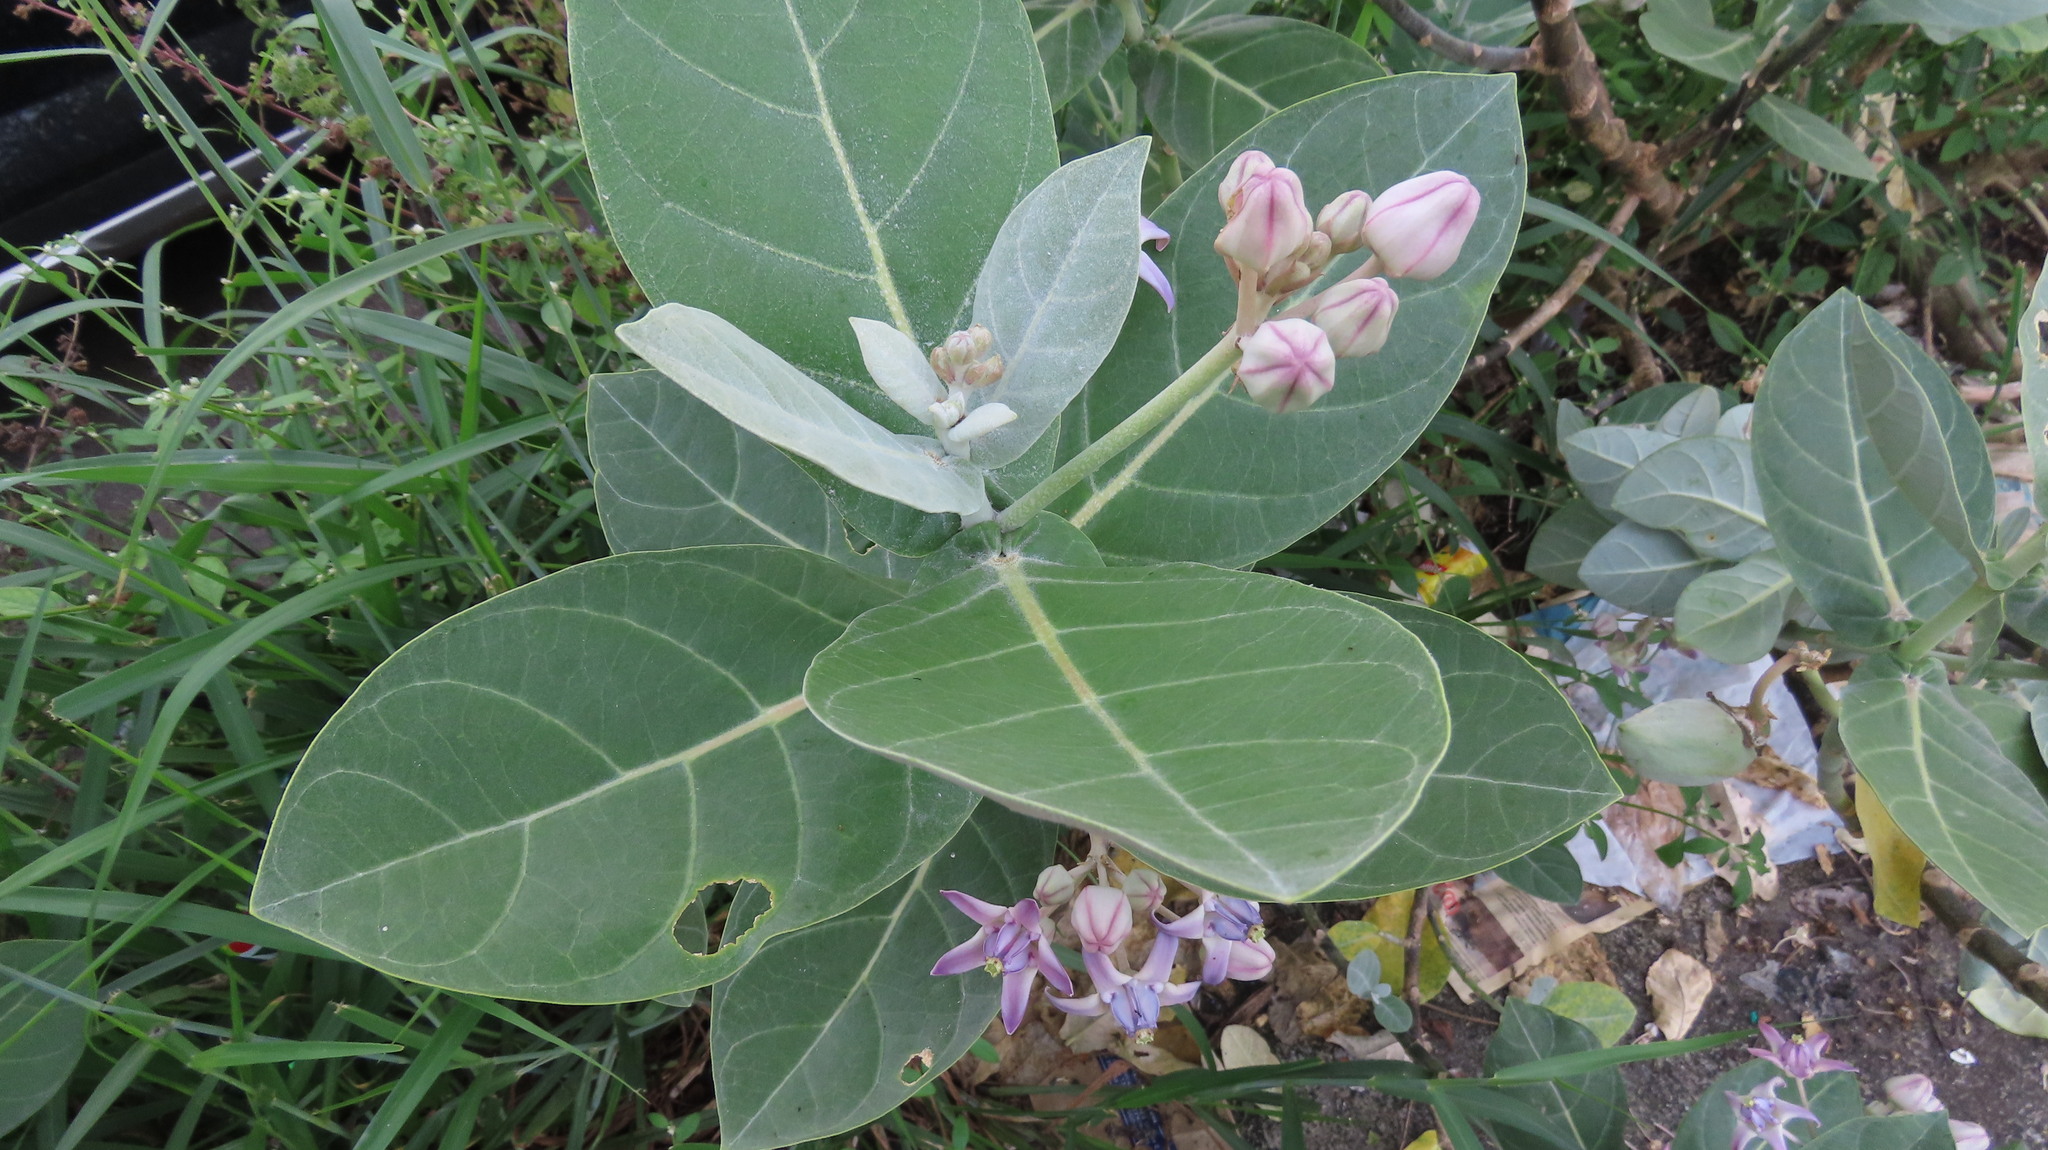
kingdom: Plantae
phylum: Tracheophyta
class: Magnoliopsida
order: Gentianales
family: Apocynaceae
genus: Calotropis
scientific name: Calotropis gigantea
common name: Crown flower
